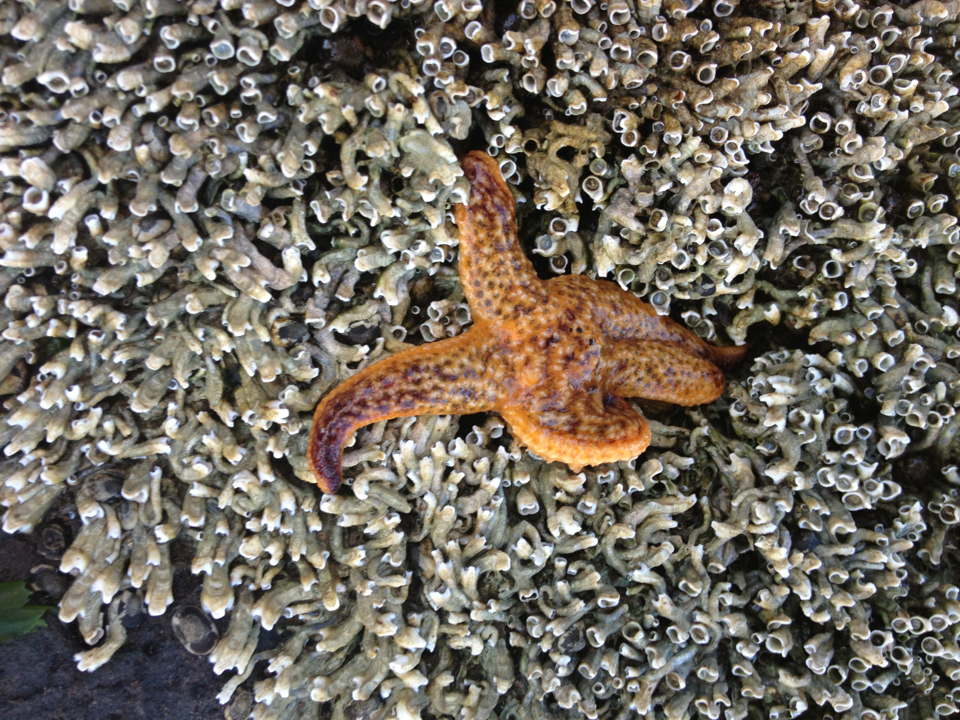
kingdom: Animalia
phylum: Echinodermata
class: Asteroidea
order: Forcipulatida
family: Asteriidae
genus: Asterias
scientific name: Asterias amurensis
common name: Flat-bottomed star
